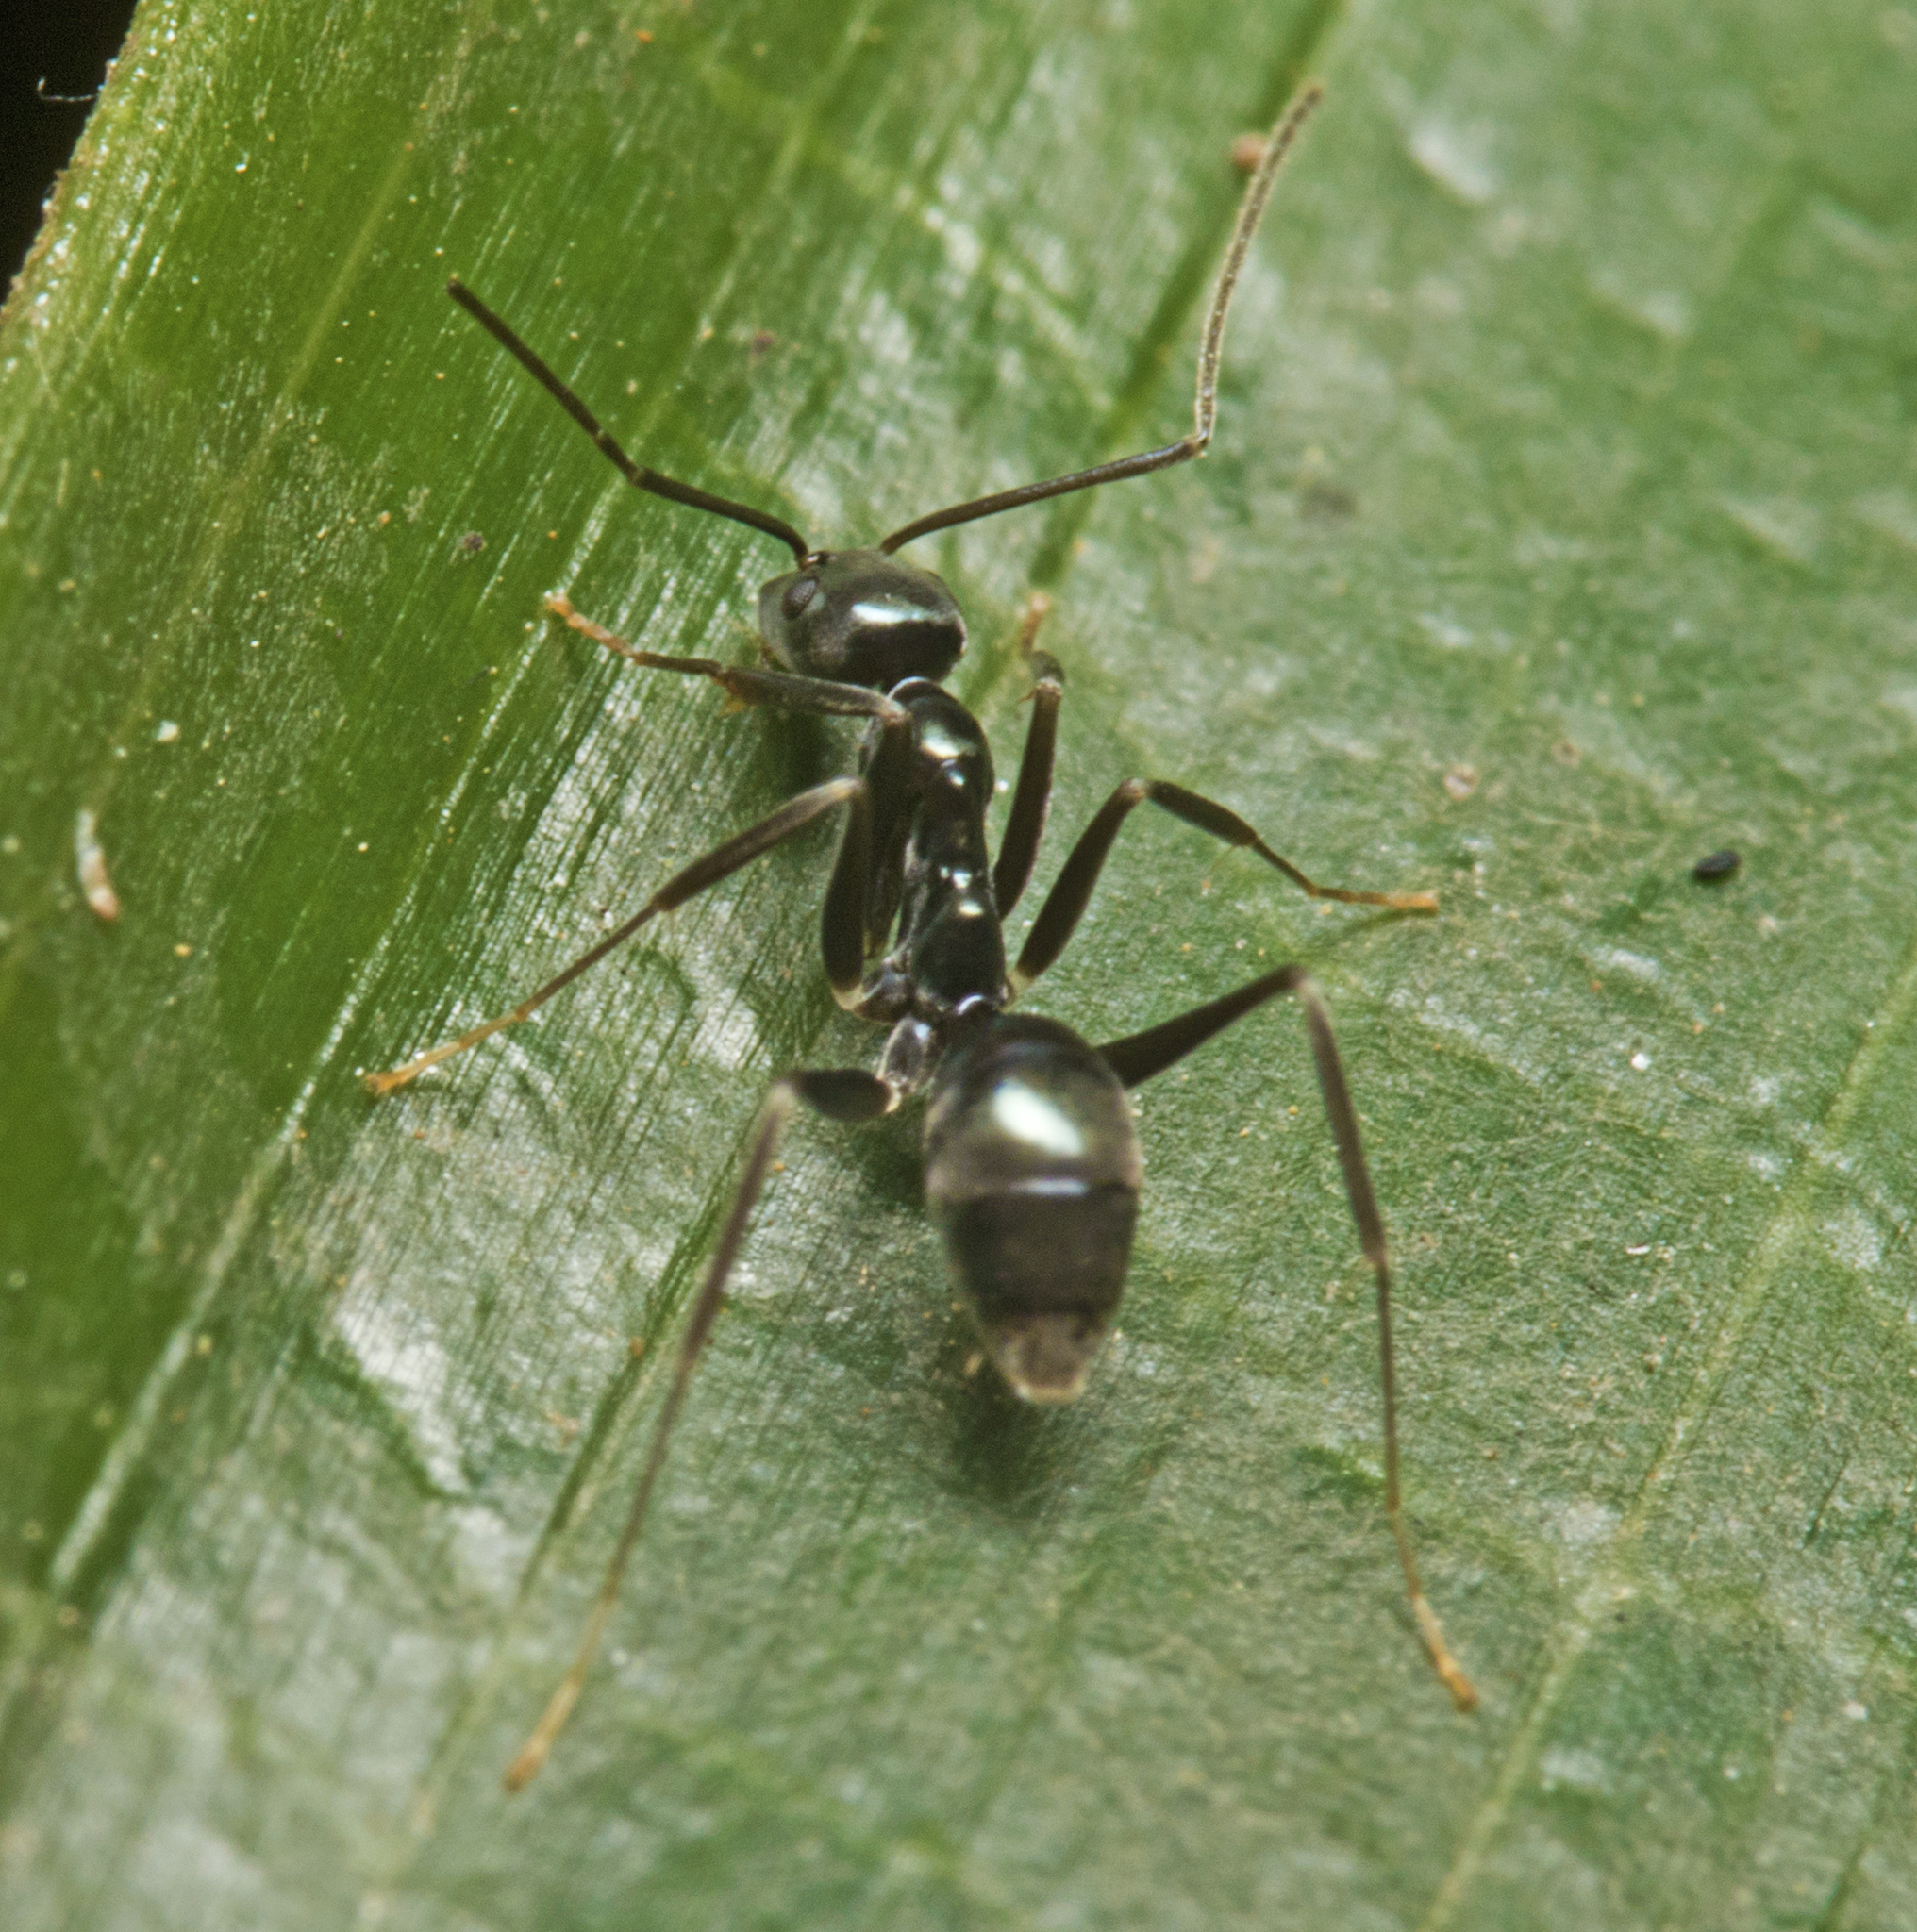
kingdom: Animalia
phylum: Arthropoda
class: Insecta
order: Hymenoptera
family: Formicidae
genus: Leptomyrmex
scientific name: Leptomyrmex burwelli
